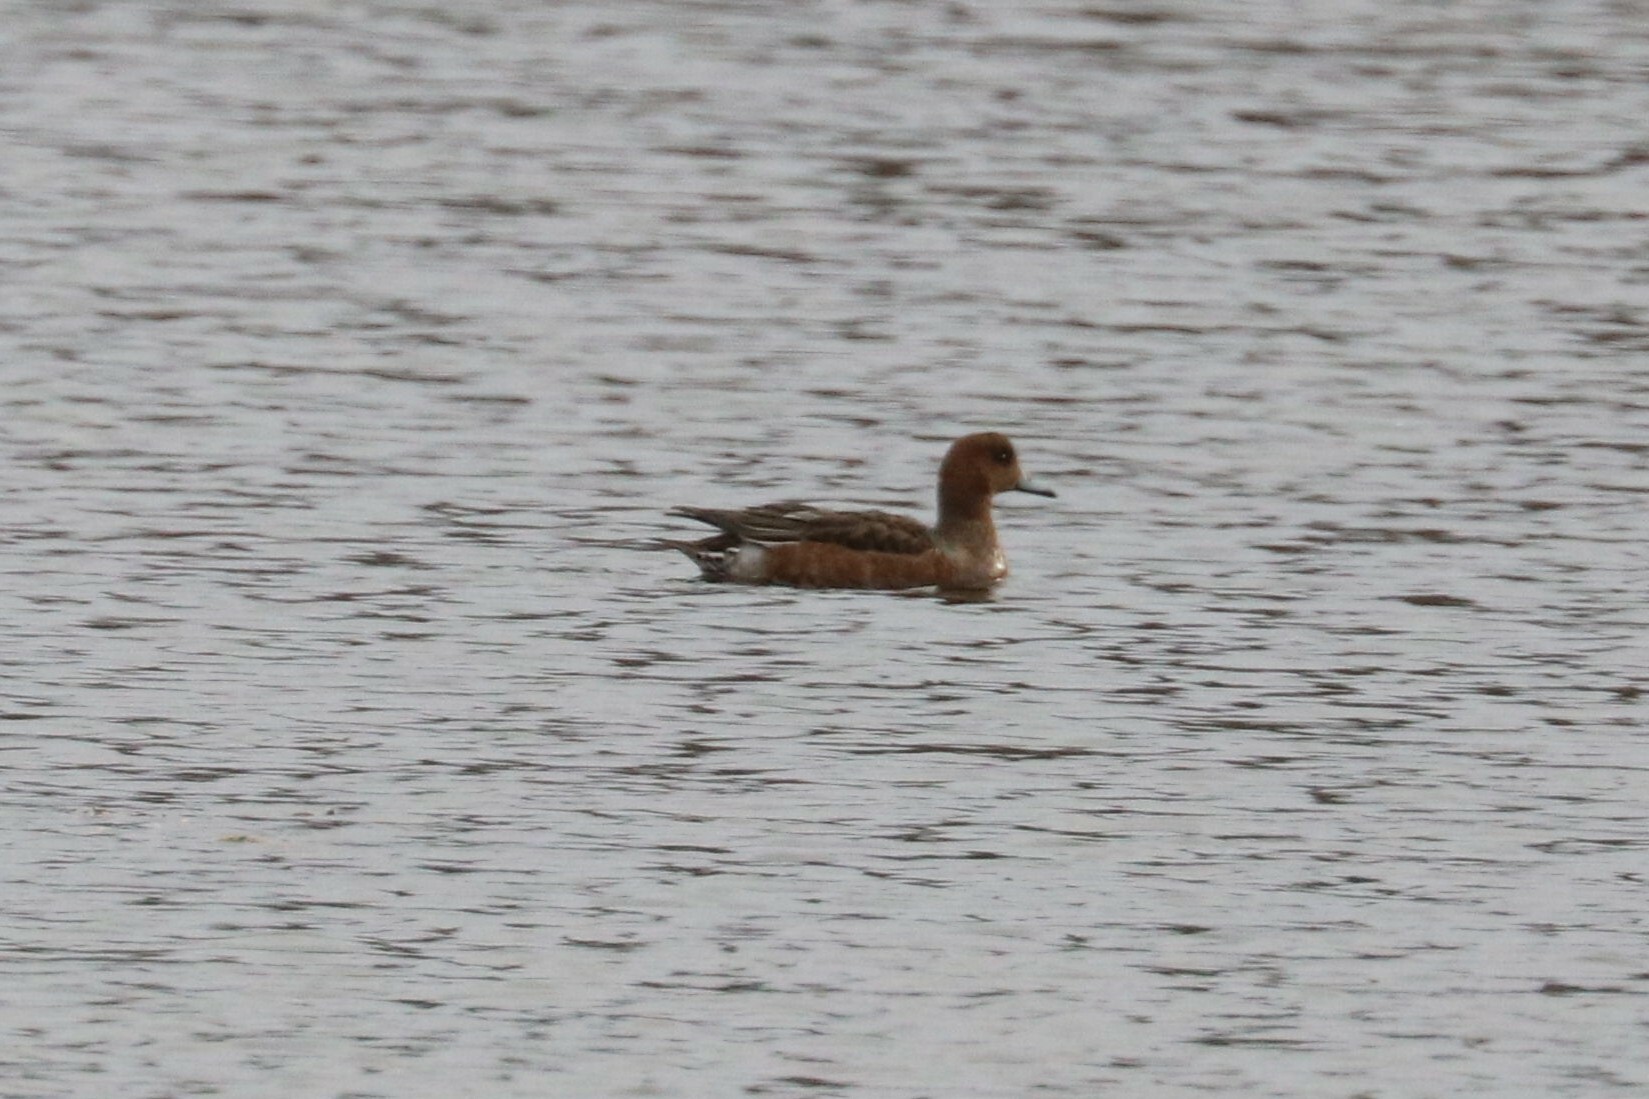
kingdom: Animalia
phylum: Chordata
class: Aves
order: Anseriformes
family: Anatidae
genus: Mareca
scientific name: Mareca penelope
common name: Eurasian wigeon
